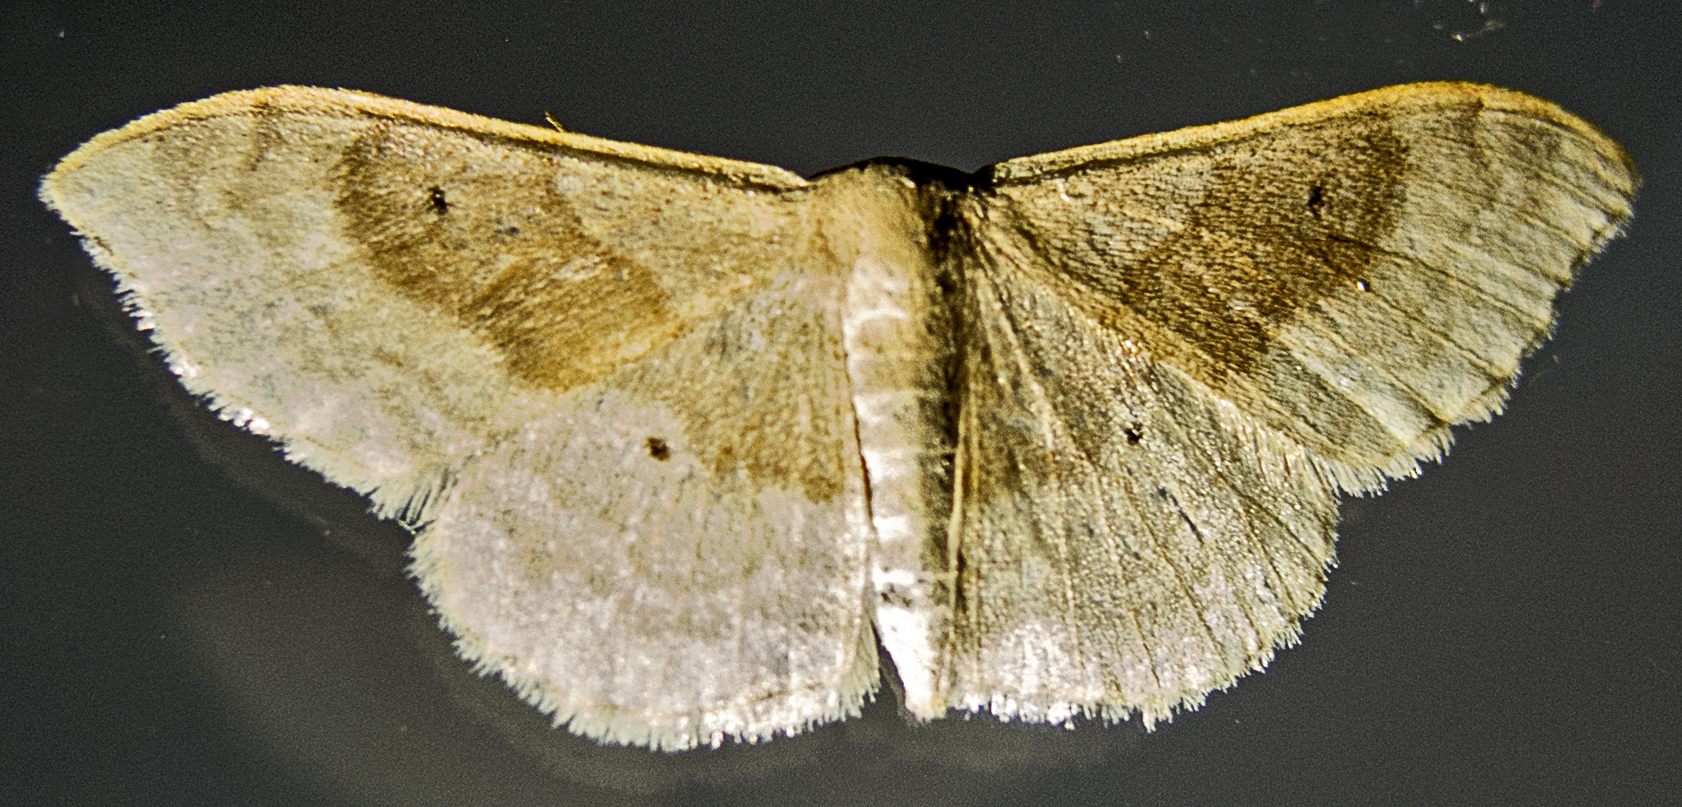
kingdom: Animalia
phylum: Arthropoda
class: Insecta
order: Lepidoptera
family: Geometridae
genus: Idaea
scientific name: Idaea degeneraria
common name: Portland ribbon wave
